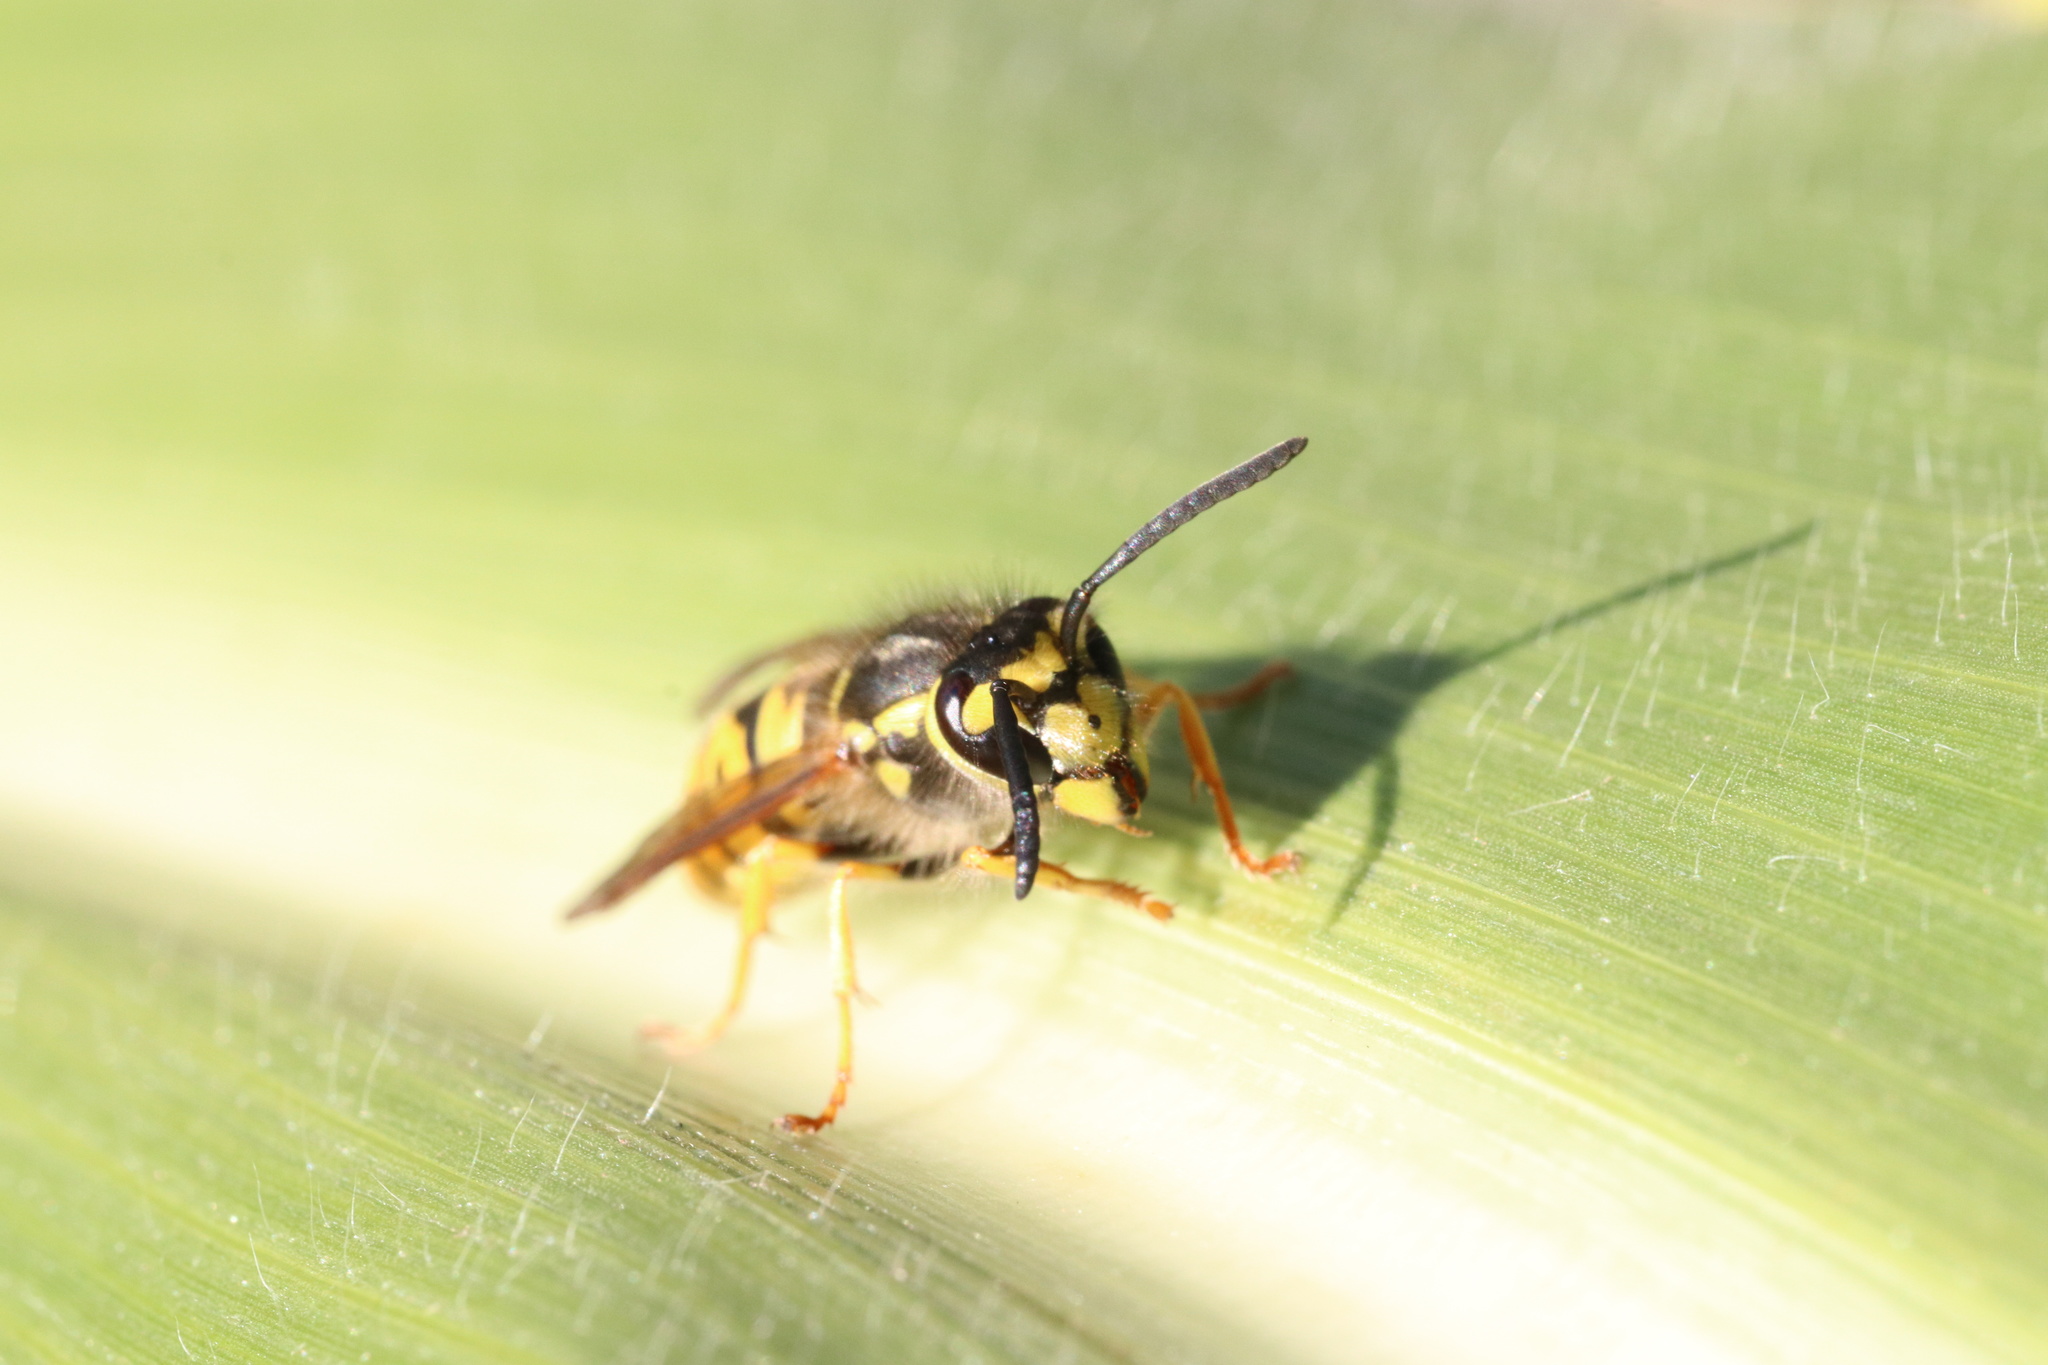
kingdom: Animalia
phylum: Arthropoda
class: Insecta
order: Hymenoptera
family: Vespidae
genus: Vespula
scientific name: Vespula germanica
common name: German wasp
